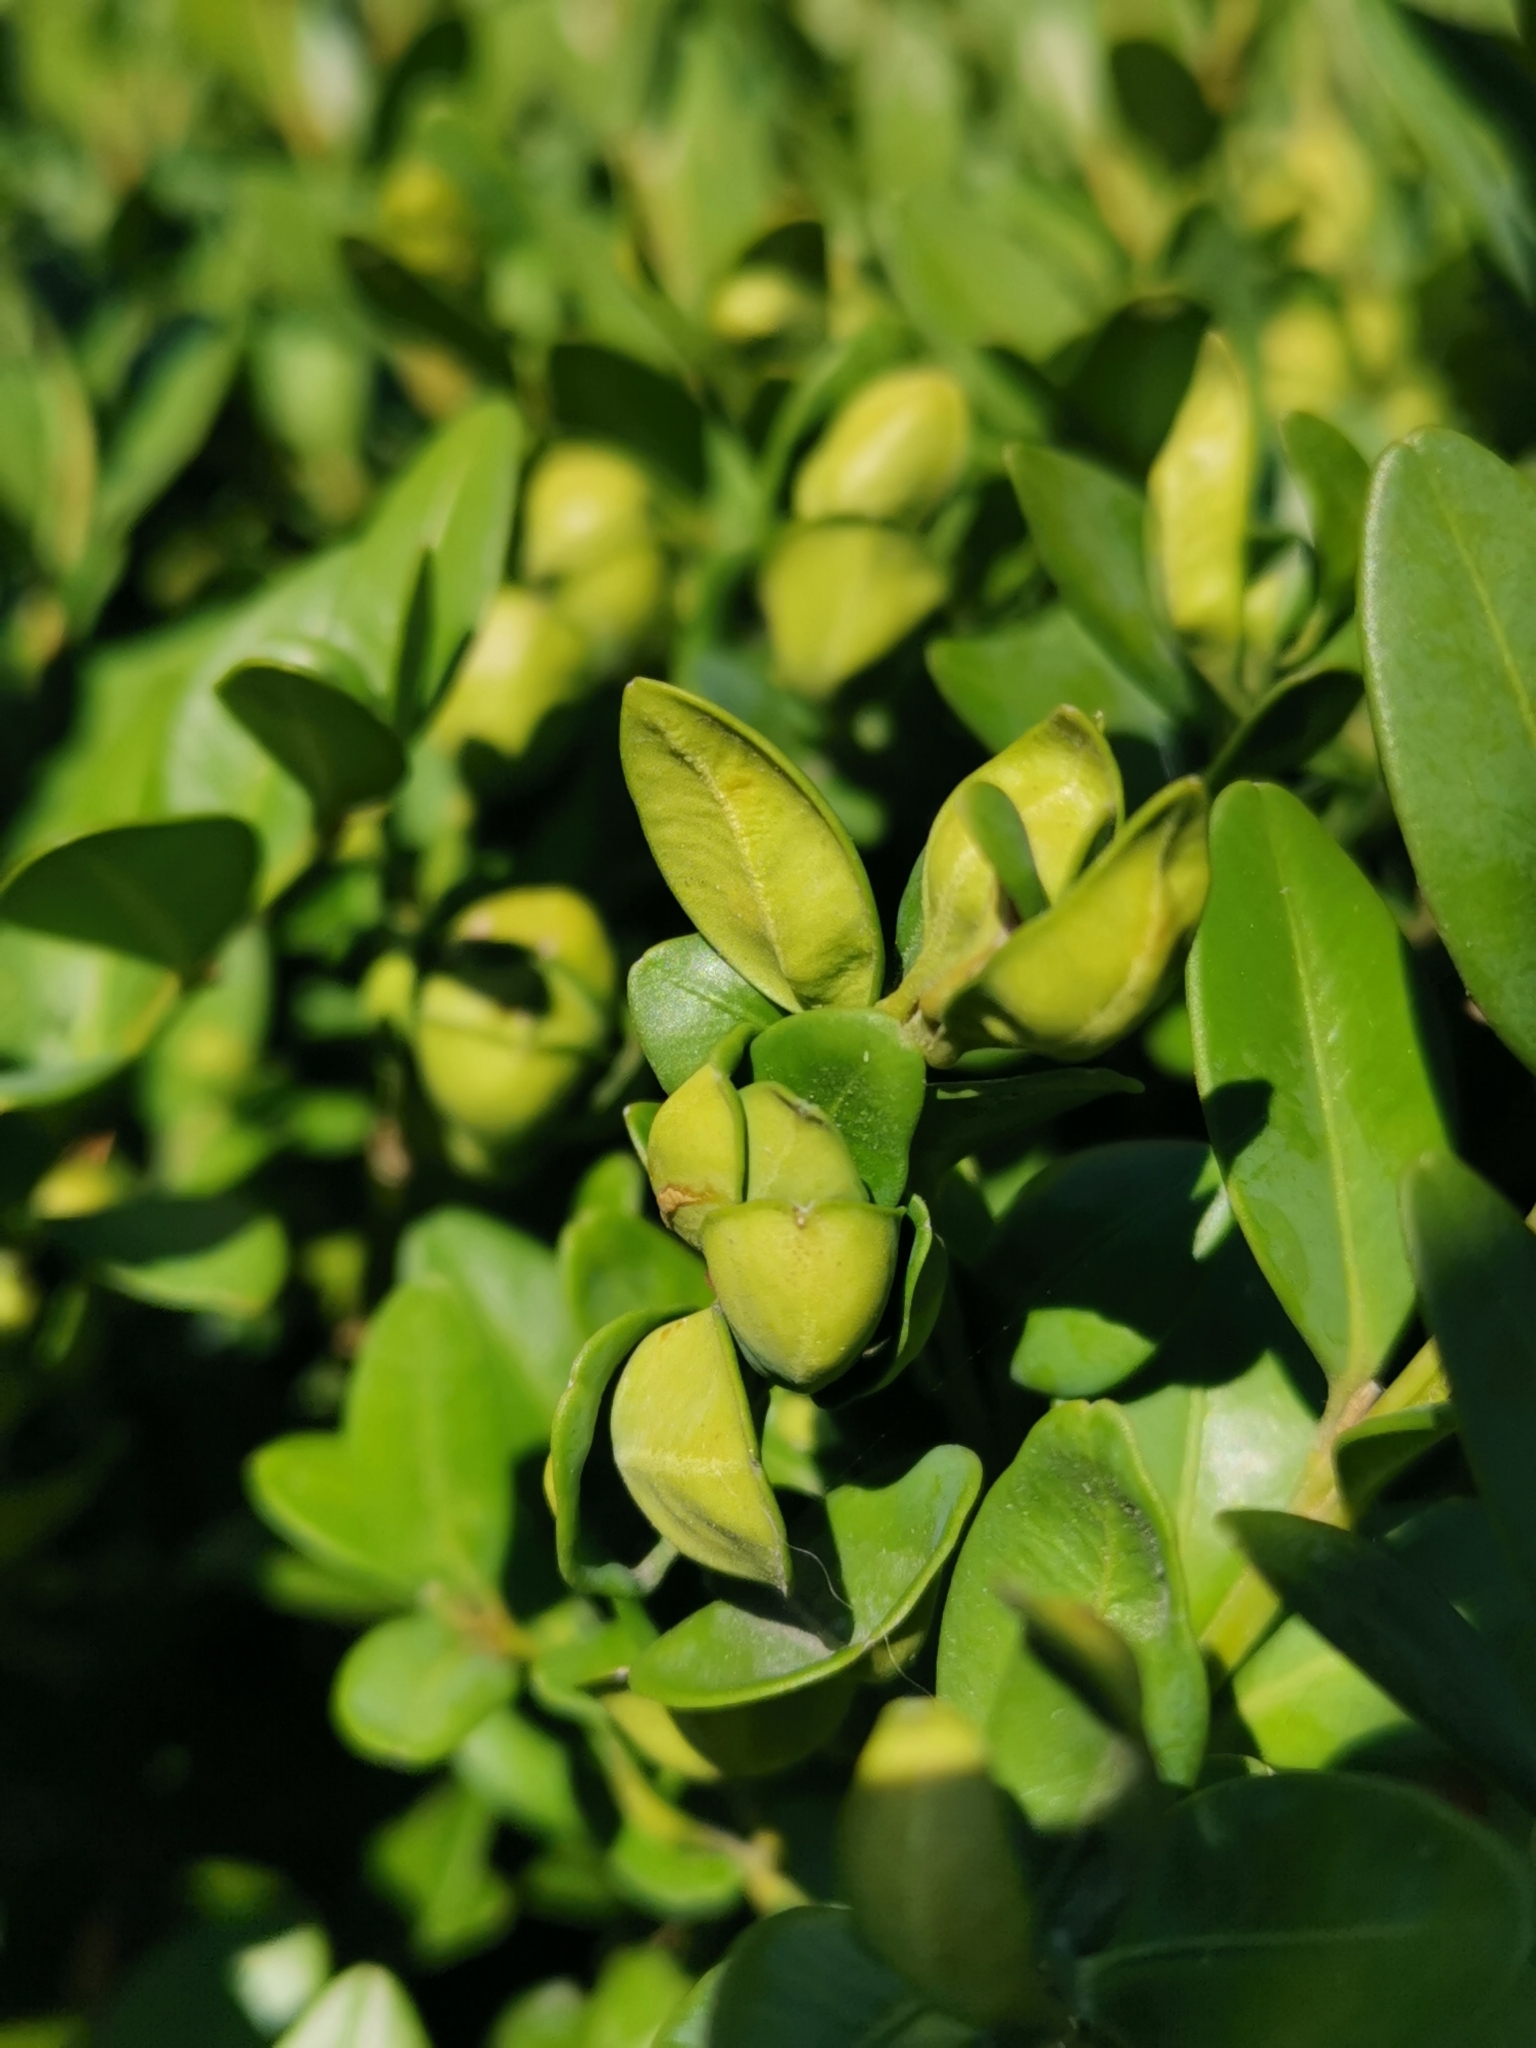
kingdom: Animalia
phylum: Arthropoda
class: Insecta
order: Hemiptera
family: Psyllidae
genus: Psylla
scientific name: Psylla buxi
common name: Boxwood psyllid
